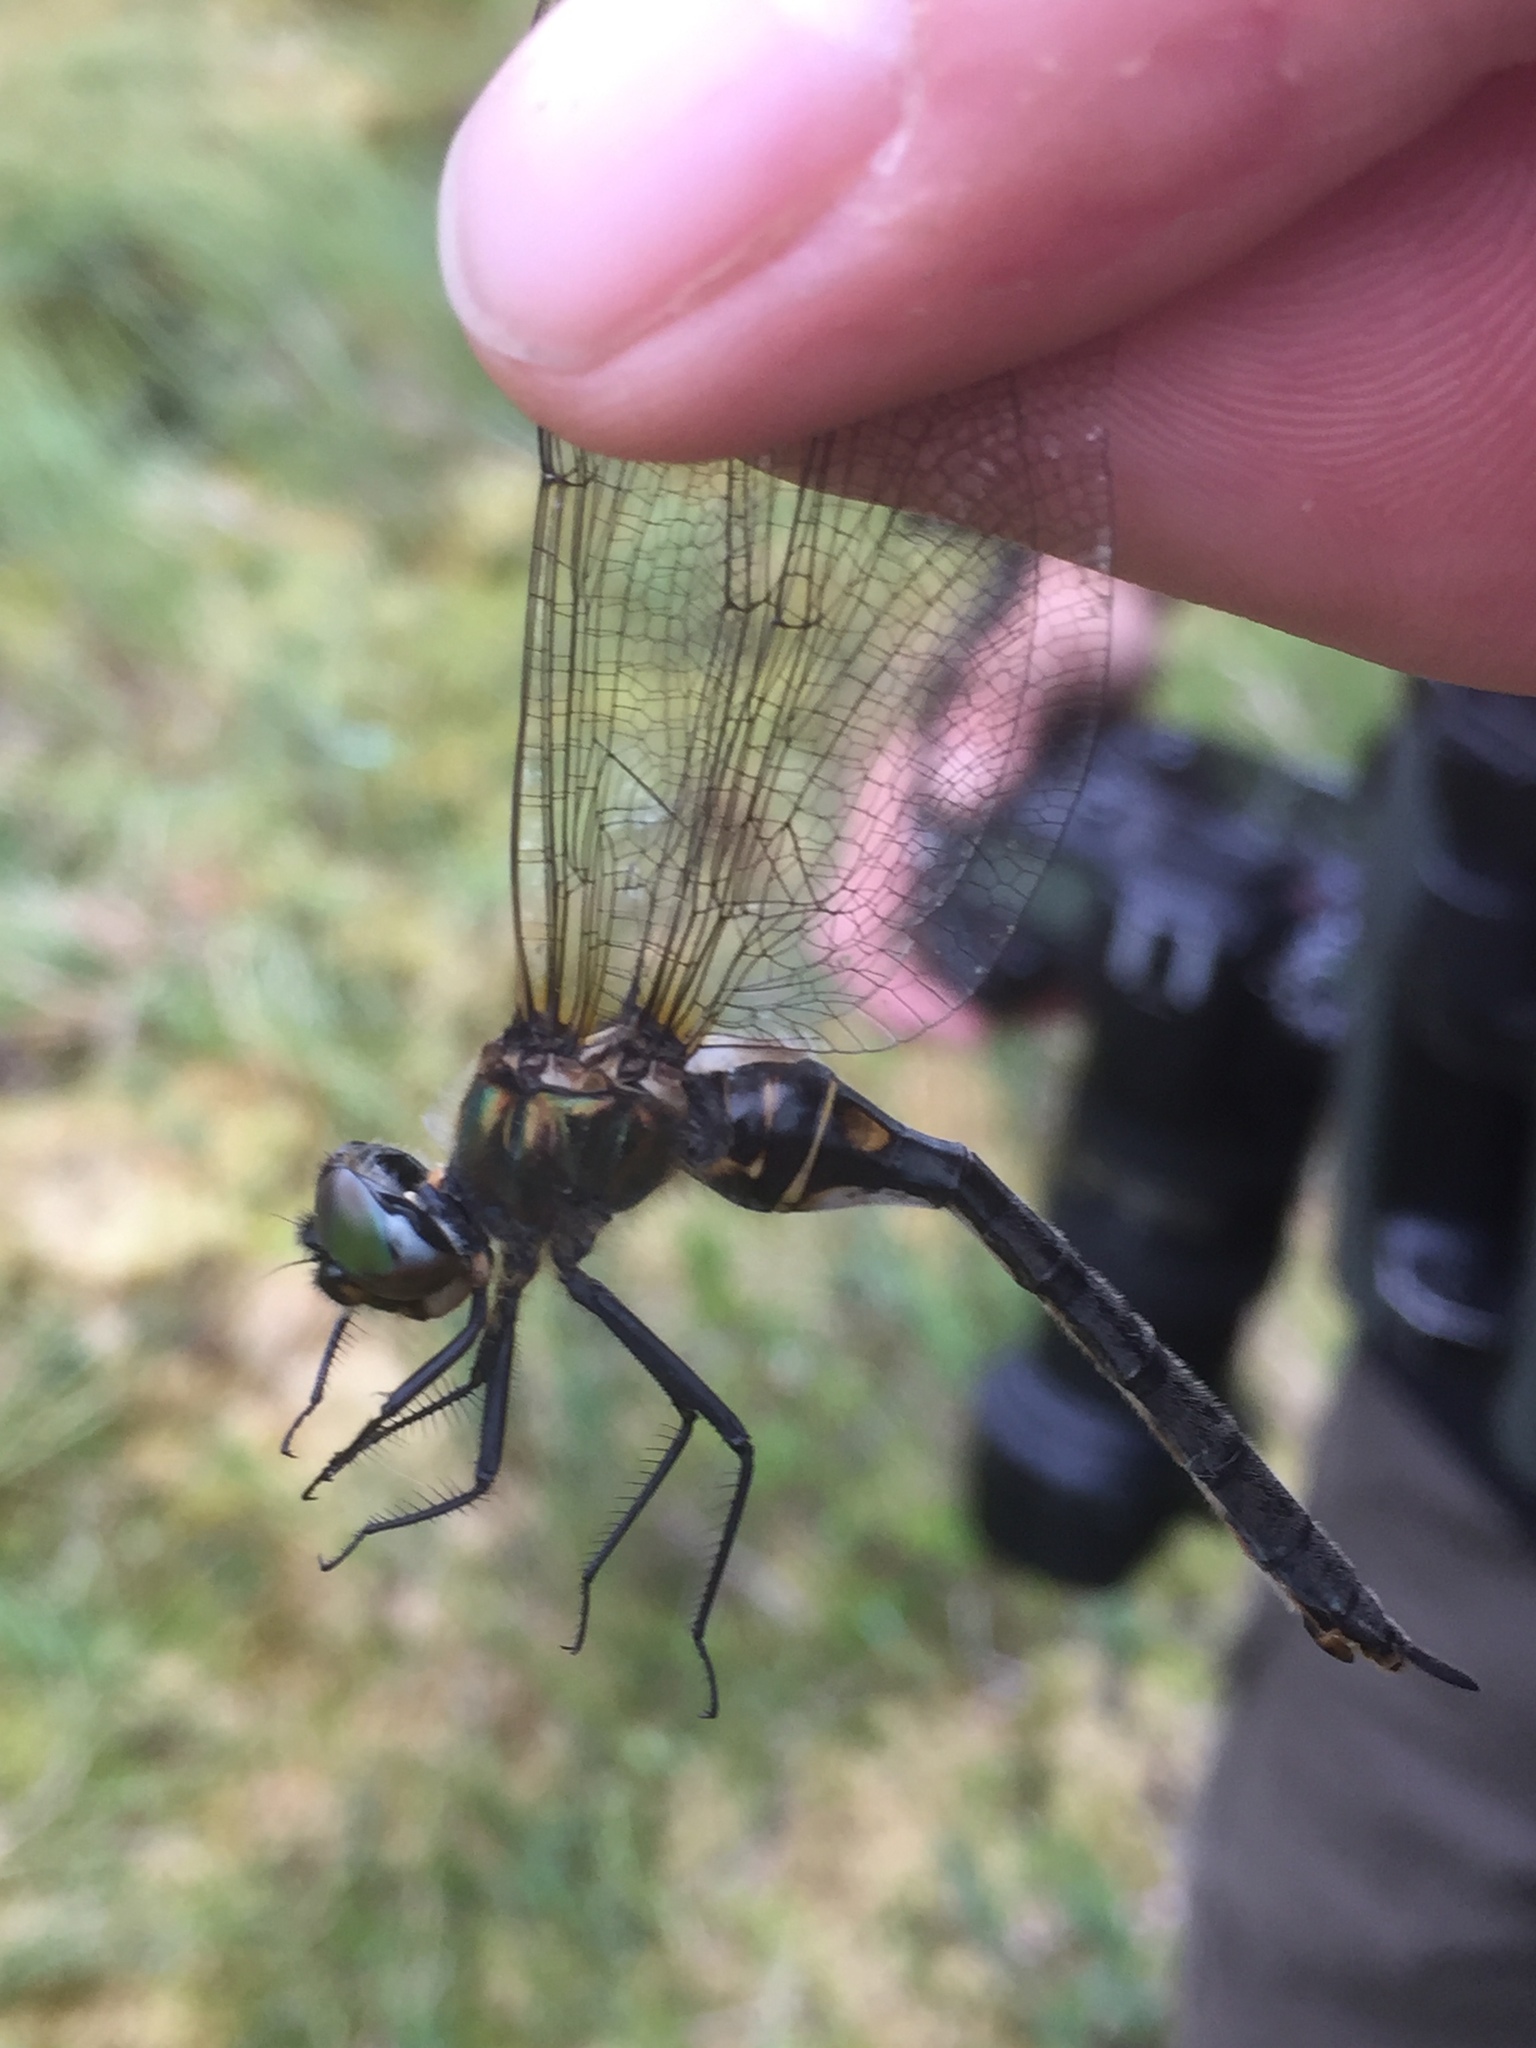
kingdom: Animalia
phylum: Arthropoda
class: Insecta
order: Odonata
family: Corduliidae
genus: Somatochlora
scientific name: Somatochlora arctica
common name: Northern emerald
